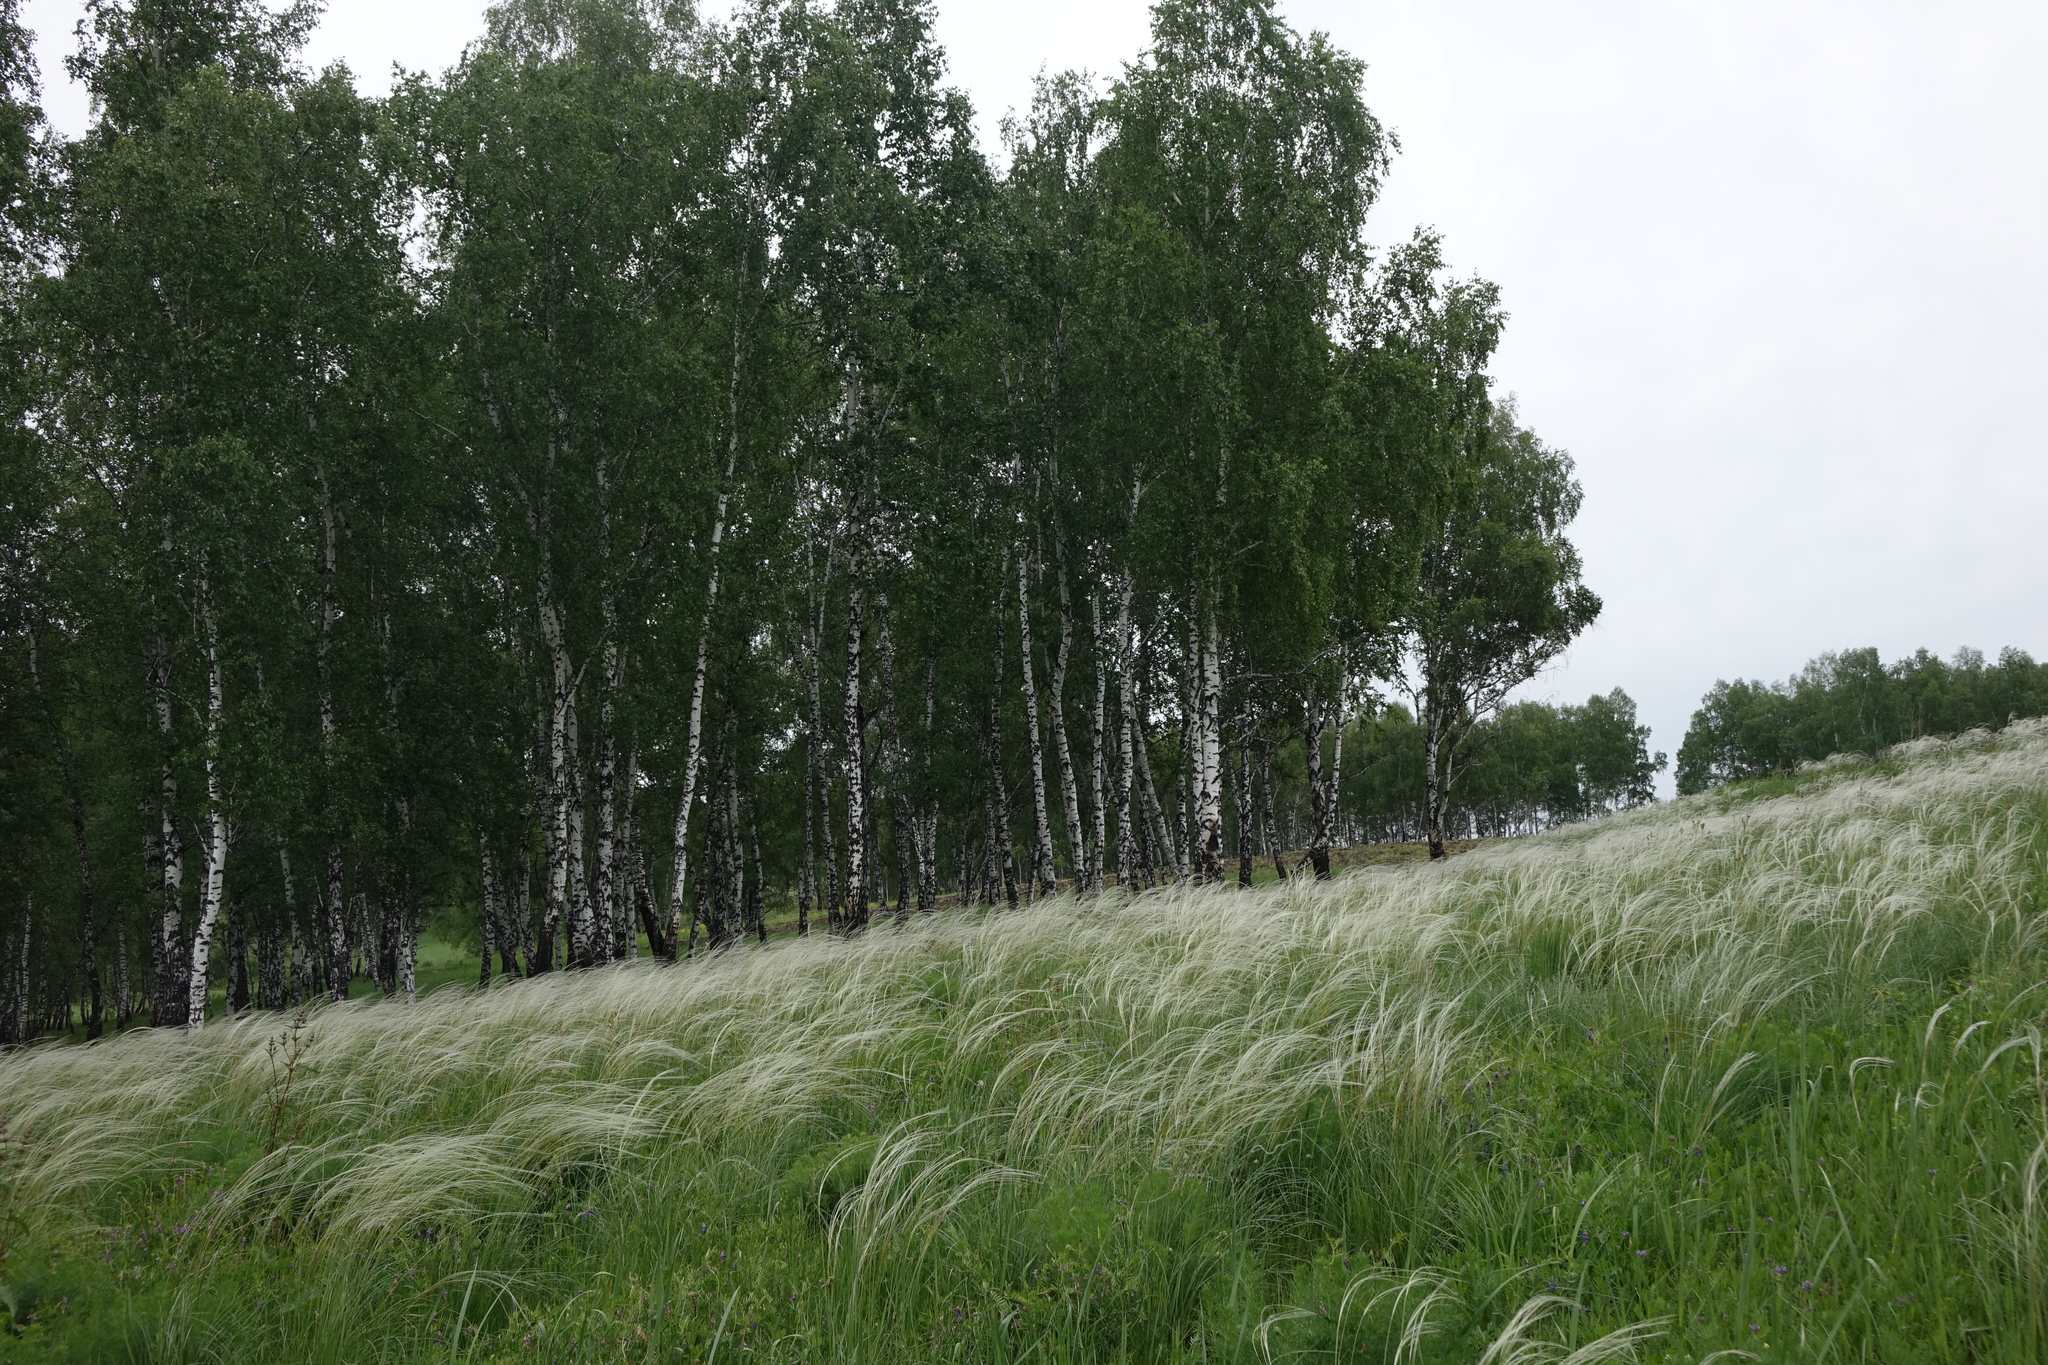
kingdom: Plantae
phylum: Tracheophyta
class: Magnoliopsida
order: Fagales
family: Betulaceae
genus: Betula
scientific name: Betula pendula
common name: Silver birch
